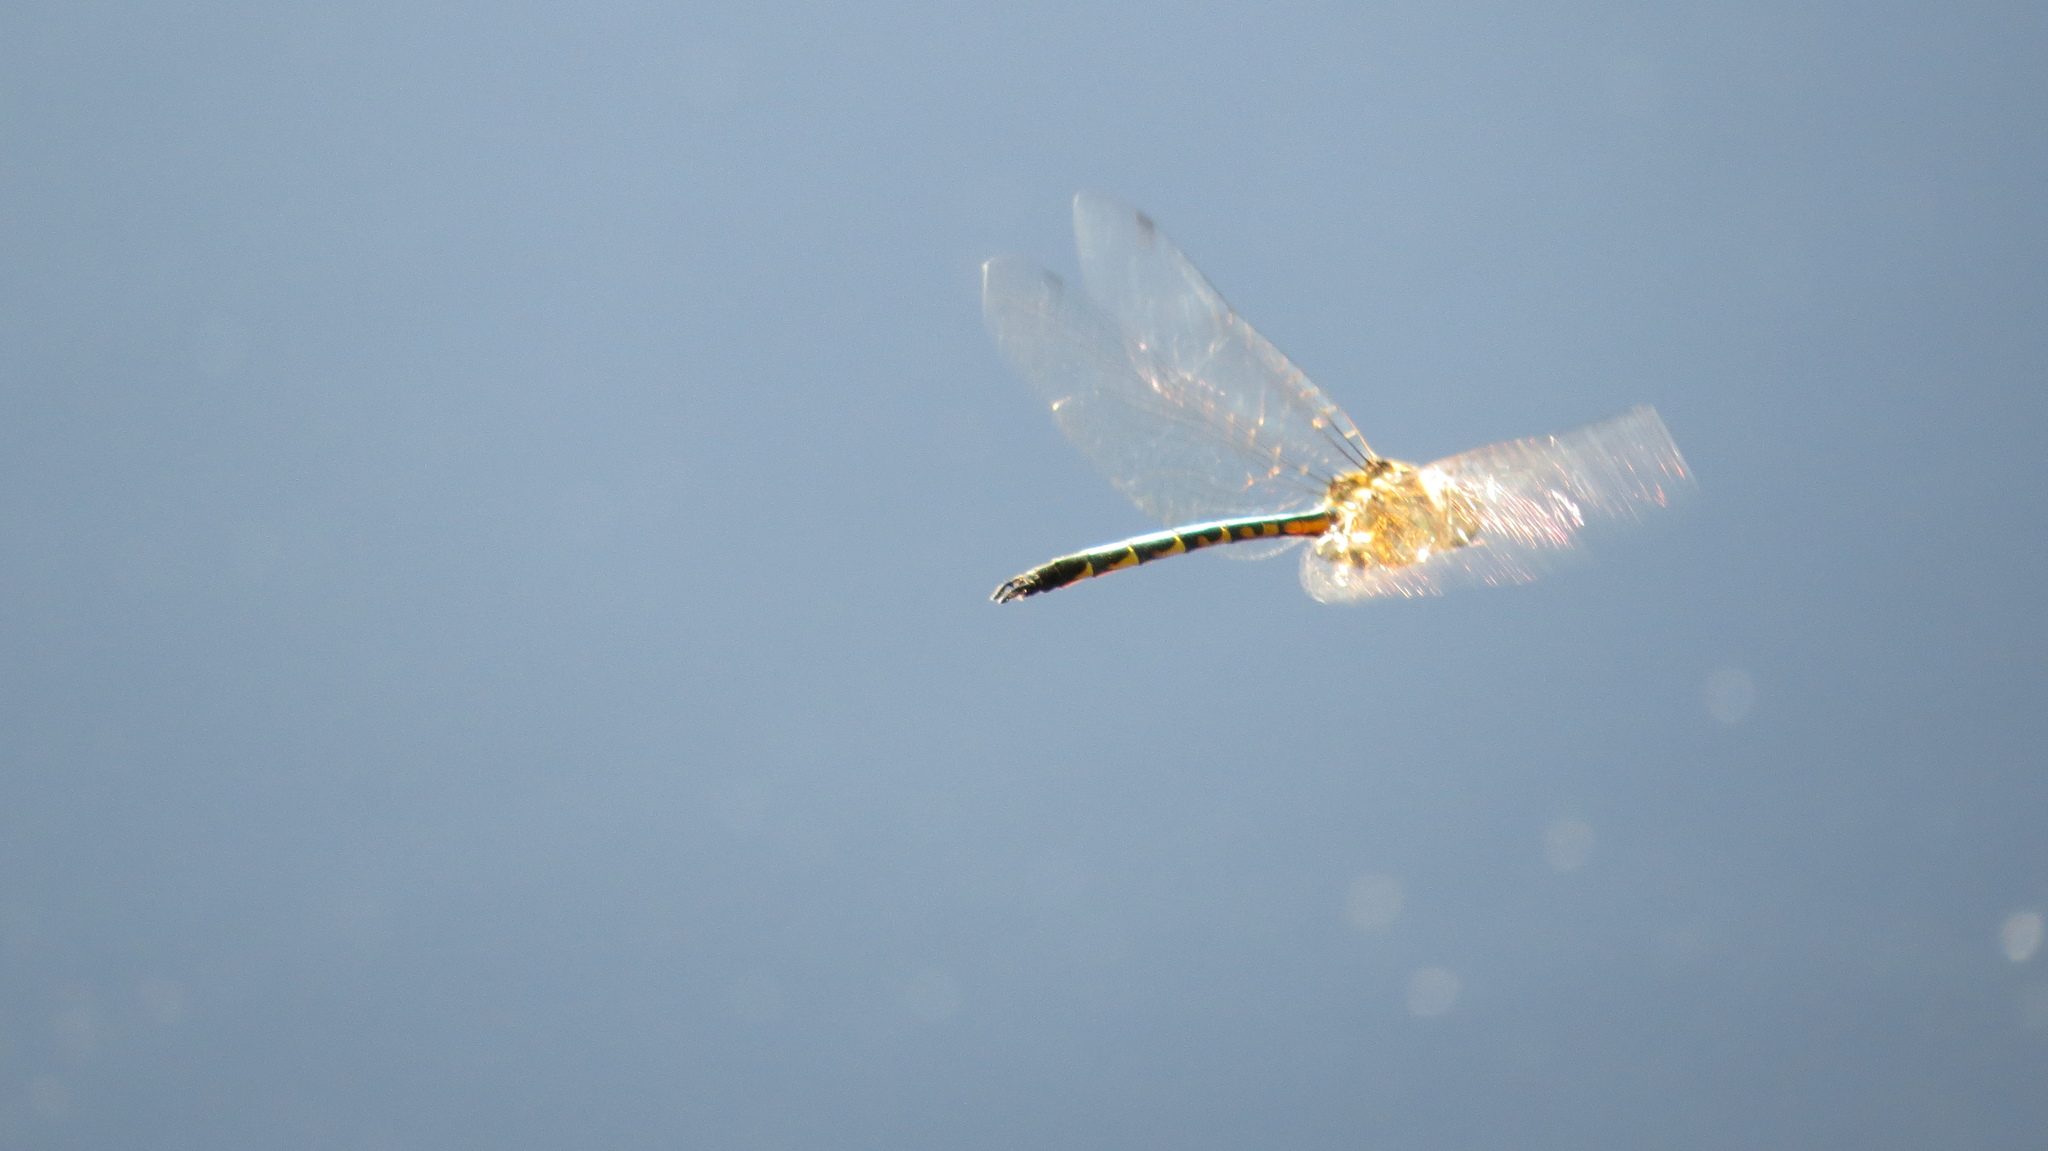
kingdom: Animalia
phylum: Arthropoda
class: Insecta
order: Odonata
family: Corduliidae
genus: Hemicordulia
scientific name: Hemicordulia australiae
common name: Sentry dragonfly
